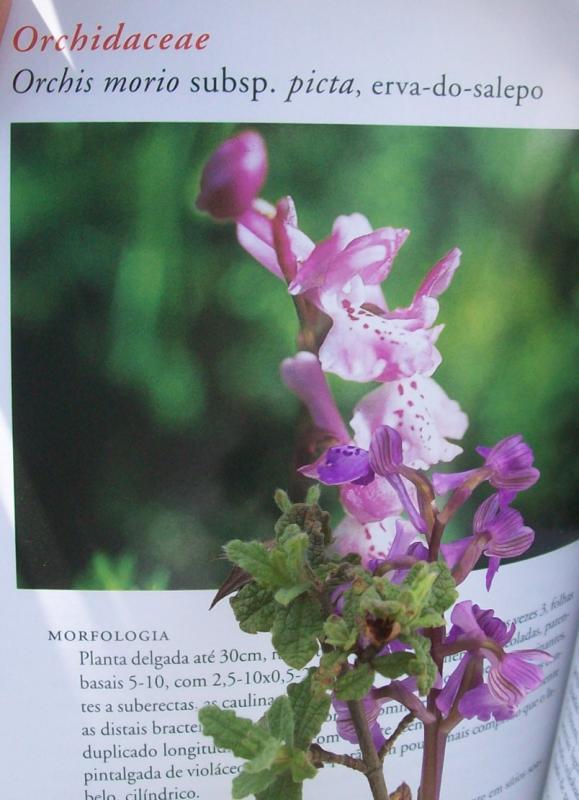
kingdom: Plantae
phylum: Tracheophyta
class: Liliopsida
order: Asparagales
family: Orchidaceae
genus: Anacamptis
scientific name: Anacamptis morio
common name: Green-winged orchid
